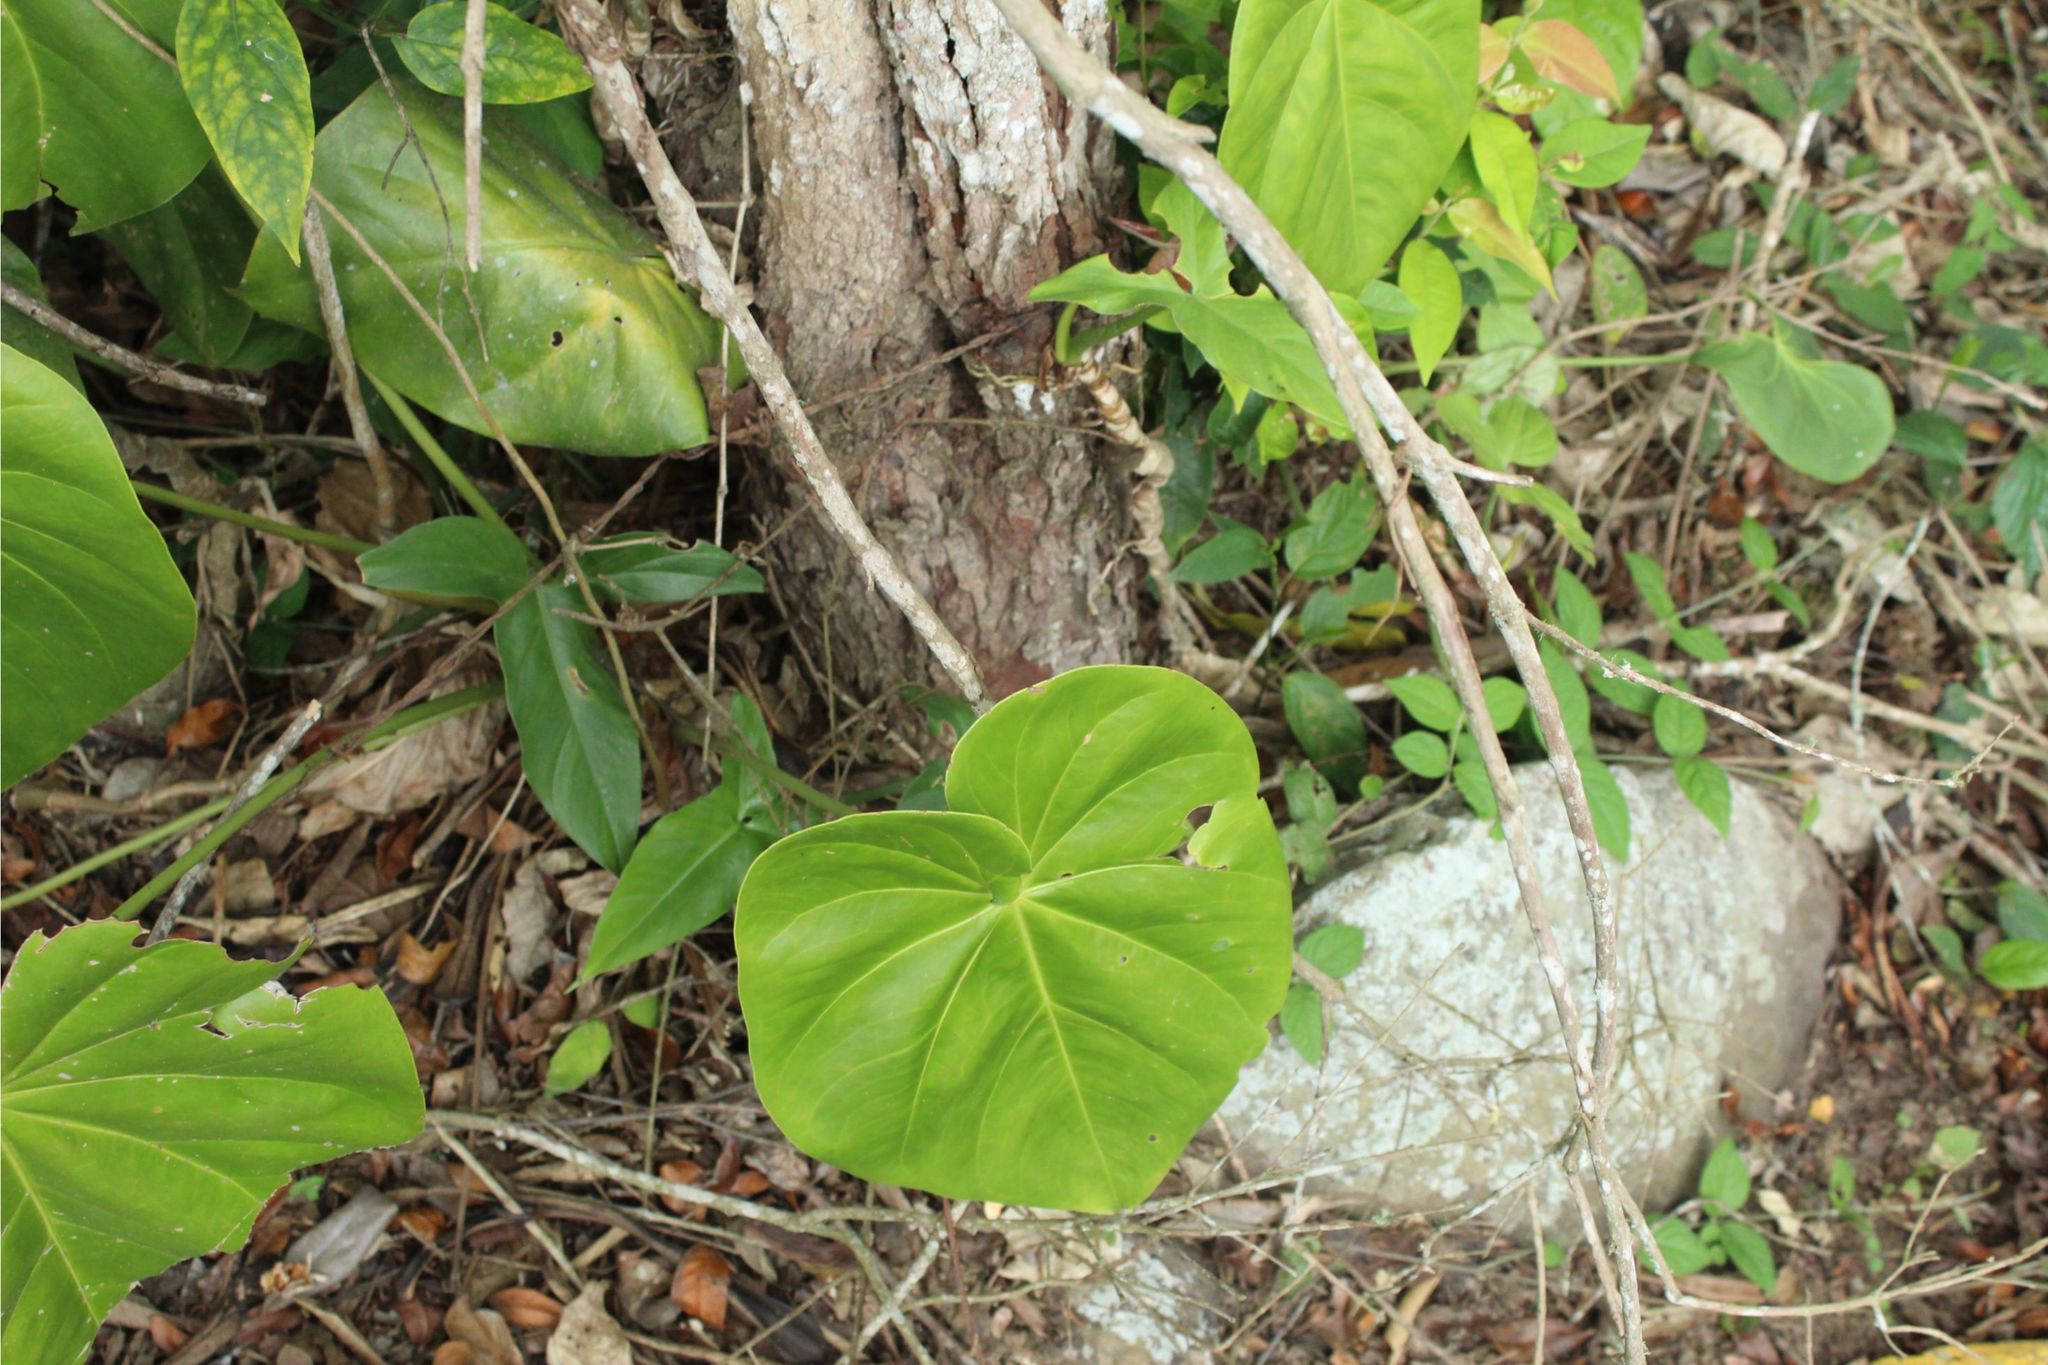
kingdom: Plantae
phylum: Tracheophyta
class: Liliopsida
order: Alismatales
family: Araceae
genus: Anthurium
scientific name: Anthurium
